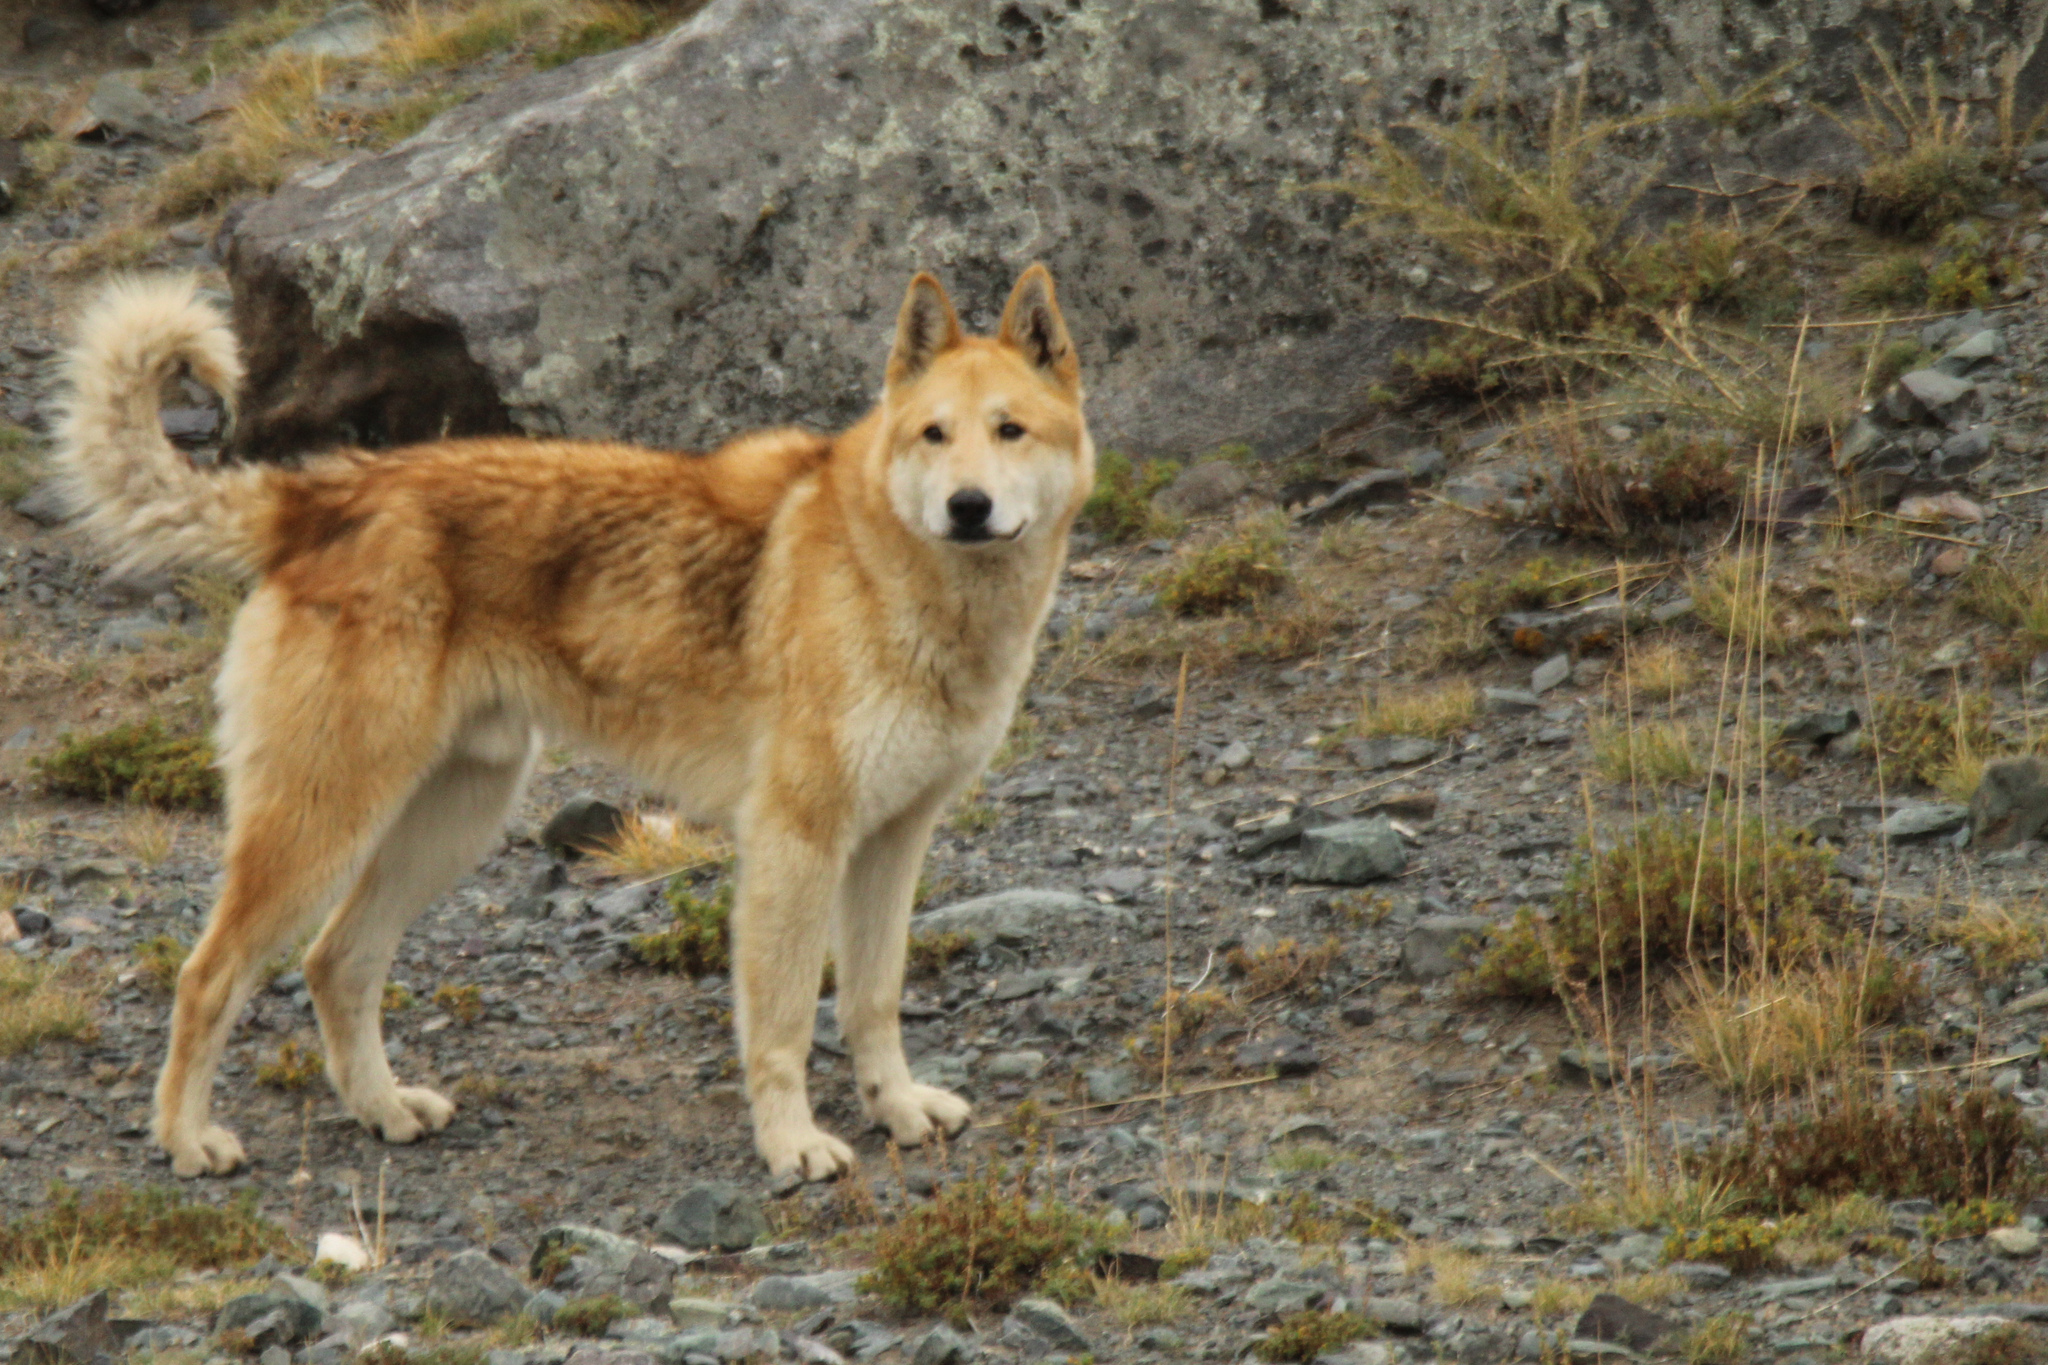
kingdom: Animalia
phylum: Chordata
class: Mammalia
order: Carnivora
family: Canidae
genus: Canis
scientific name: Canis lupus
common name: Gray wolf
